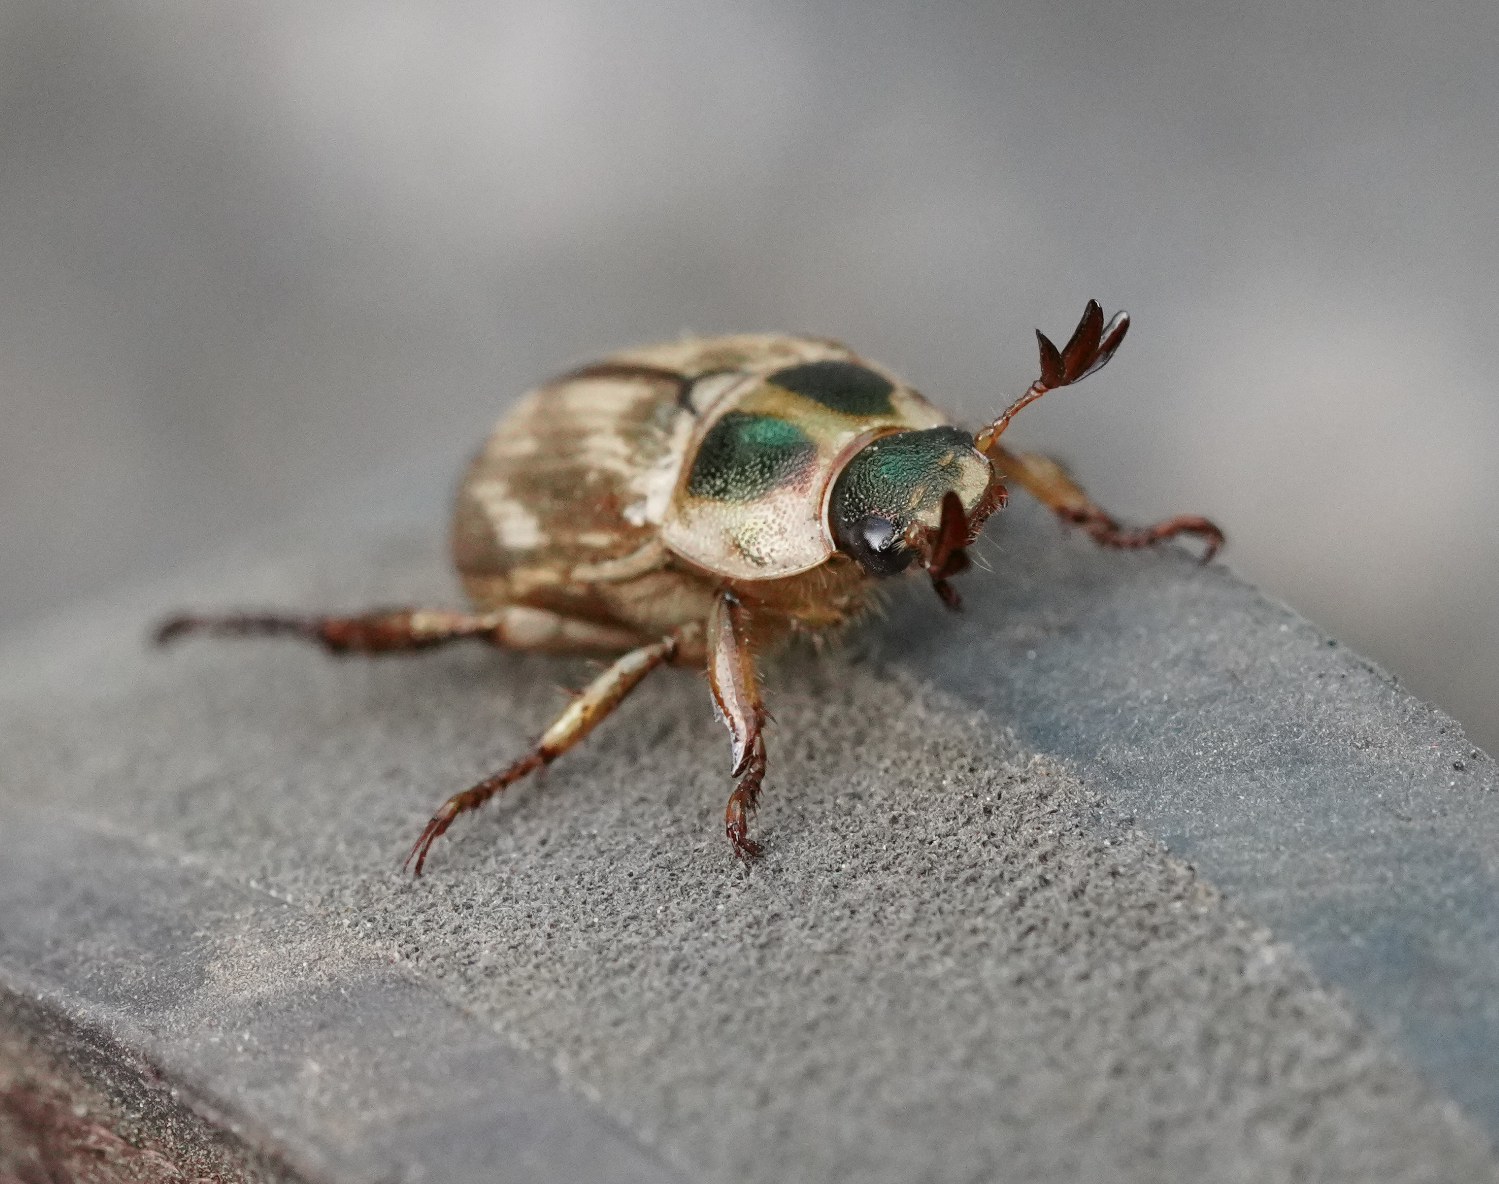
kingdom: Animalia
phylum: Arthropoda
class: Insecta
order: Coleoptera
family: Scarabaeidae
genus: Exomala
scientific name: Exomala orientalis
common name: Oriental beetle
